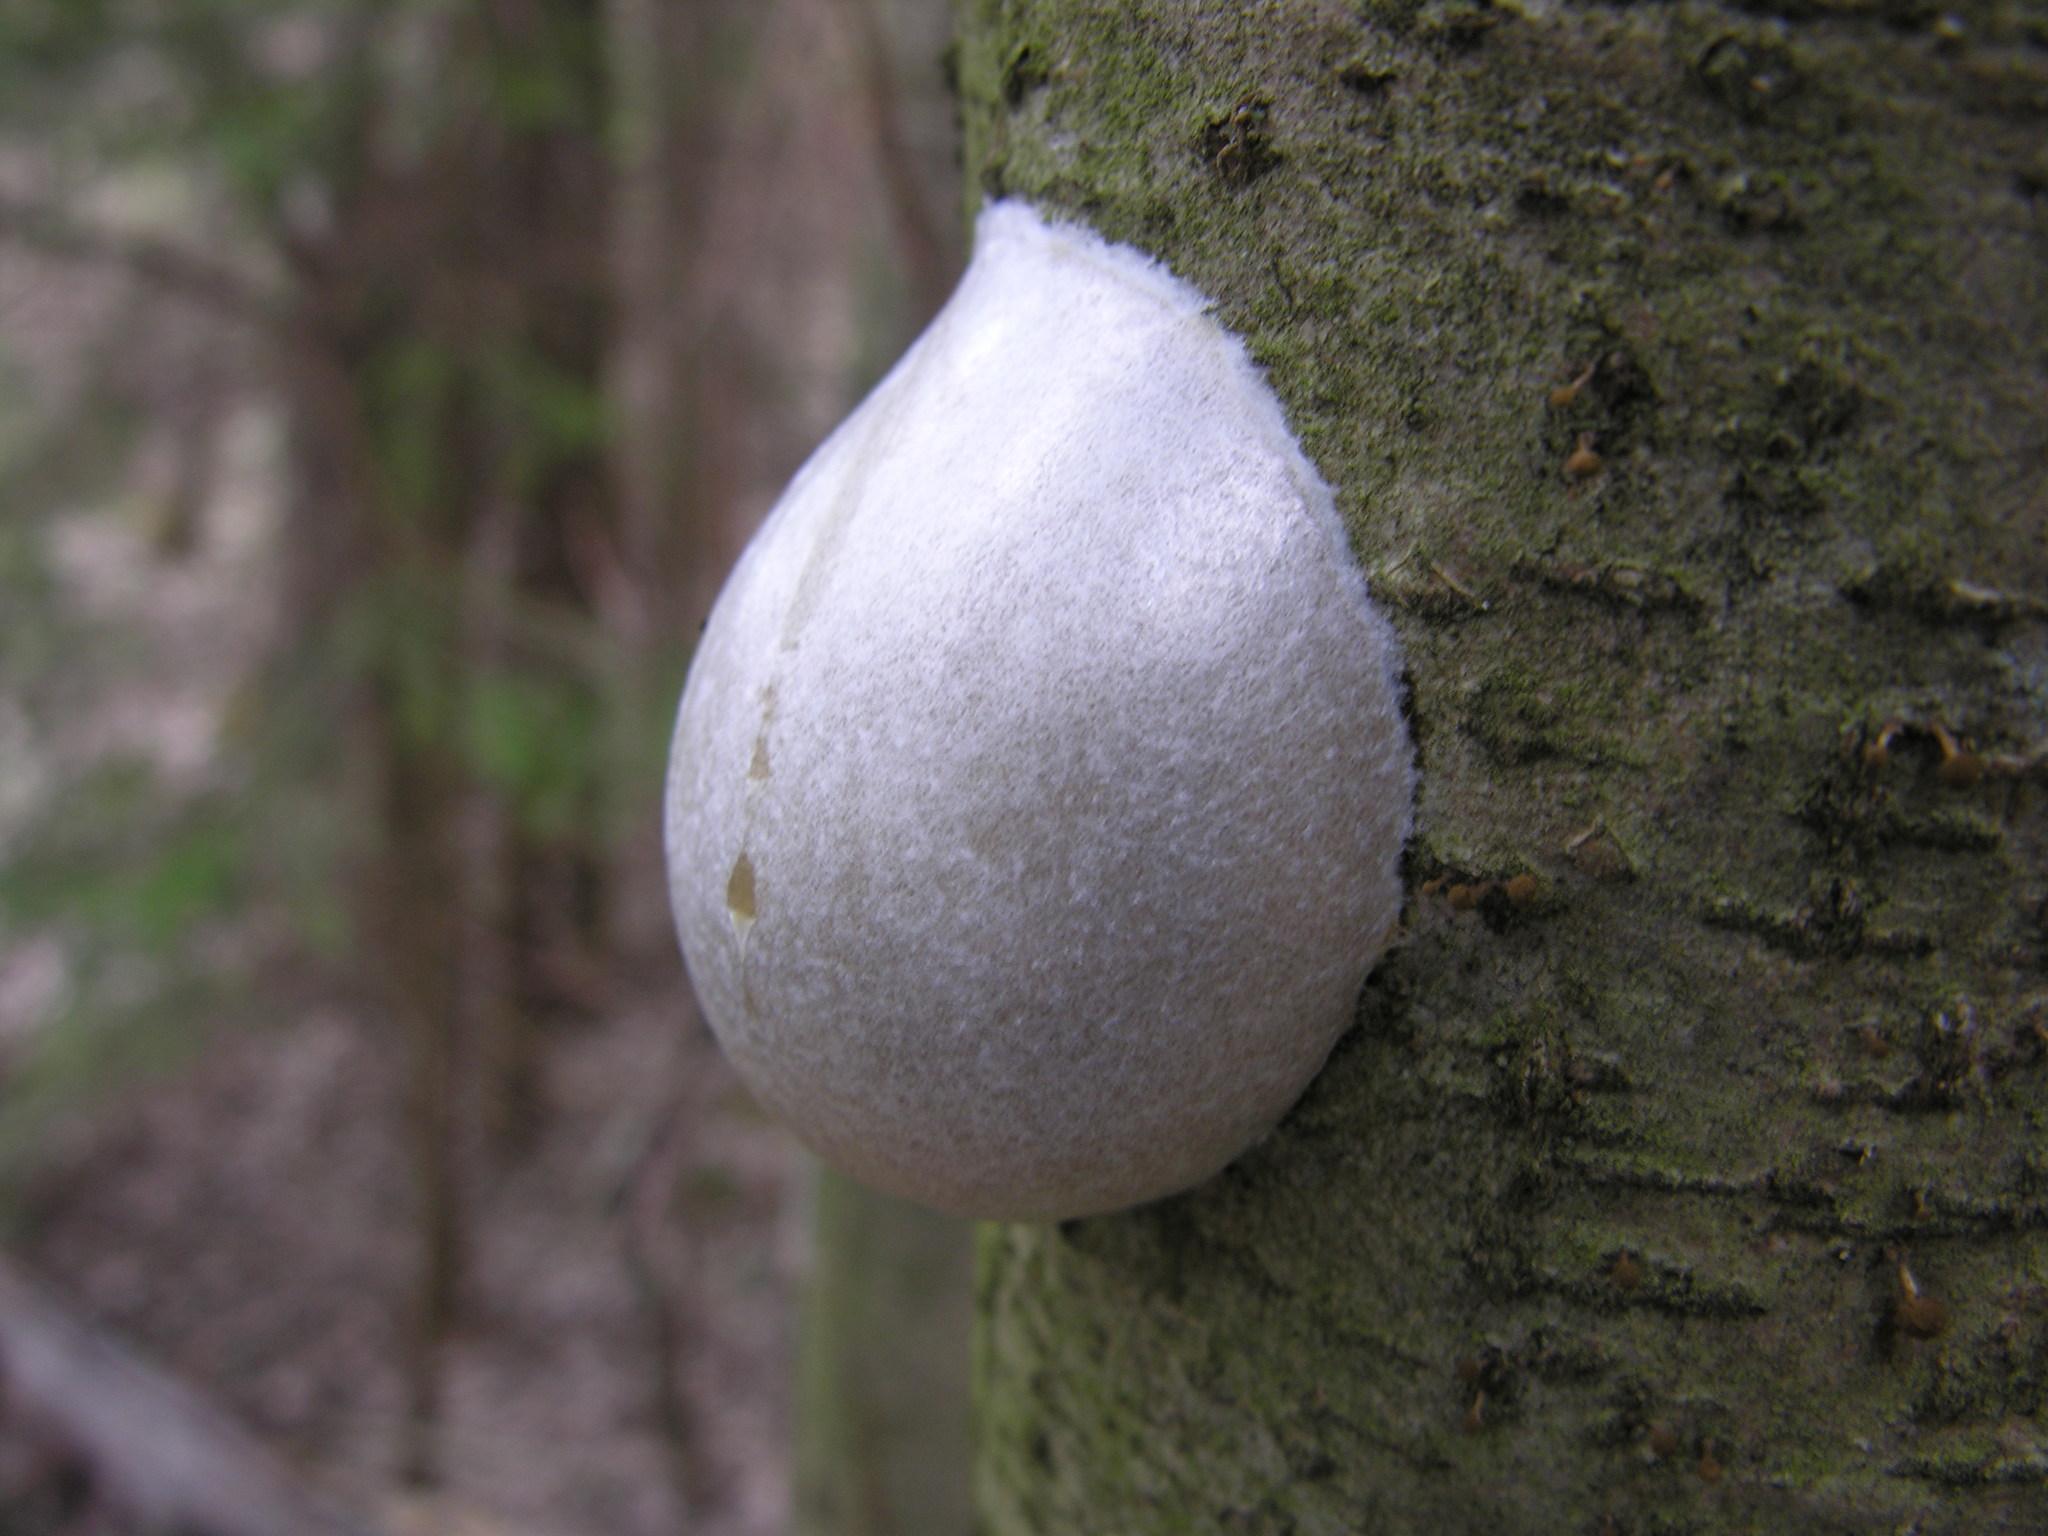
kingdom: Protozoa
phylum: Mycetozoa
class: Myxomycetes
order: Cribrariales
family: Tubiferaceae
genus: Reticularia
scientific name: Reticularia lycoperdon
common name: False puffball
